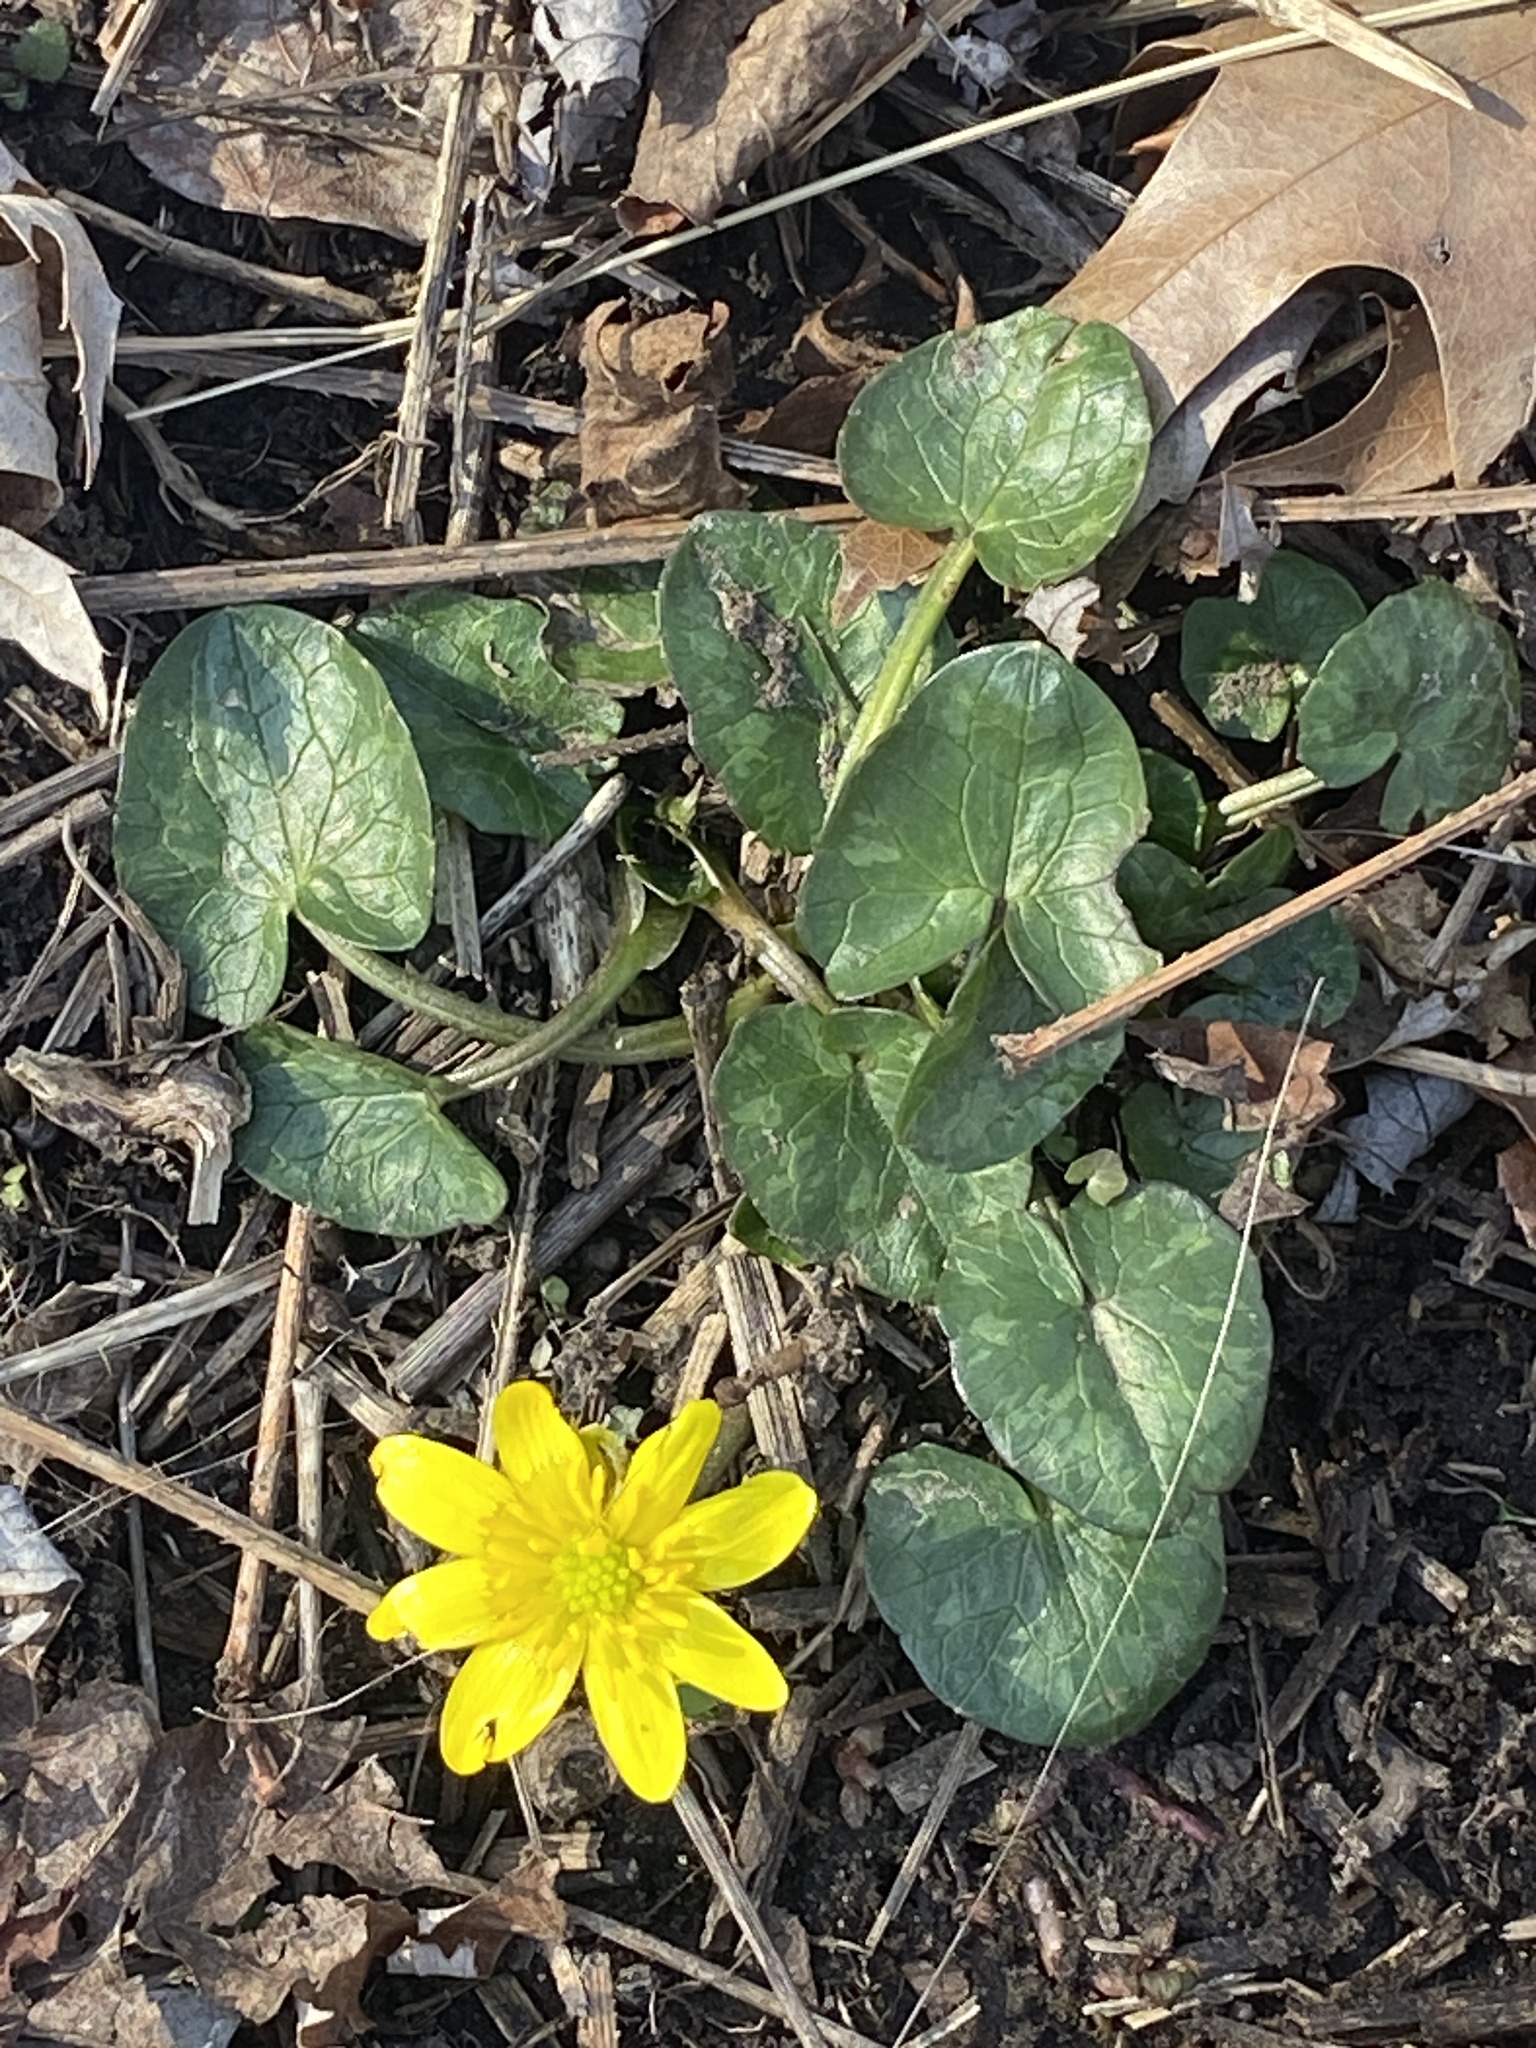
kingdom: Plantae
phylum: Tracheophyta
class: Magnoliopsida
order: Ranunculales
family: Ranunculaceae
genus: Ficaria
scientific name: Ficaria verna
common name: Lesser celandine
